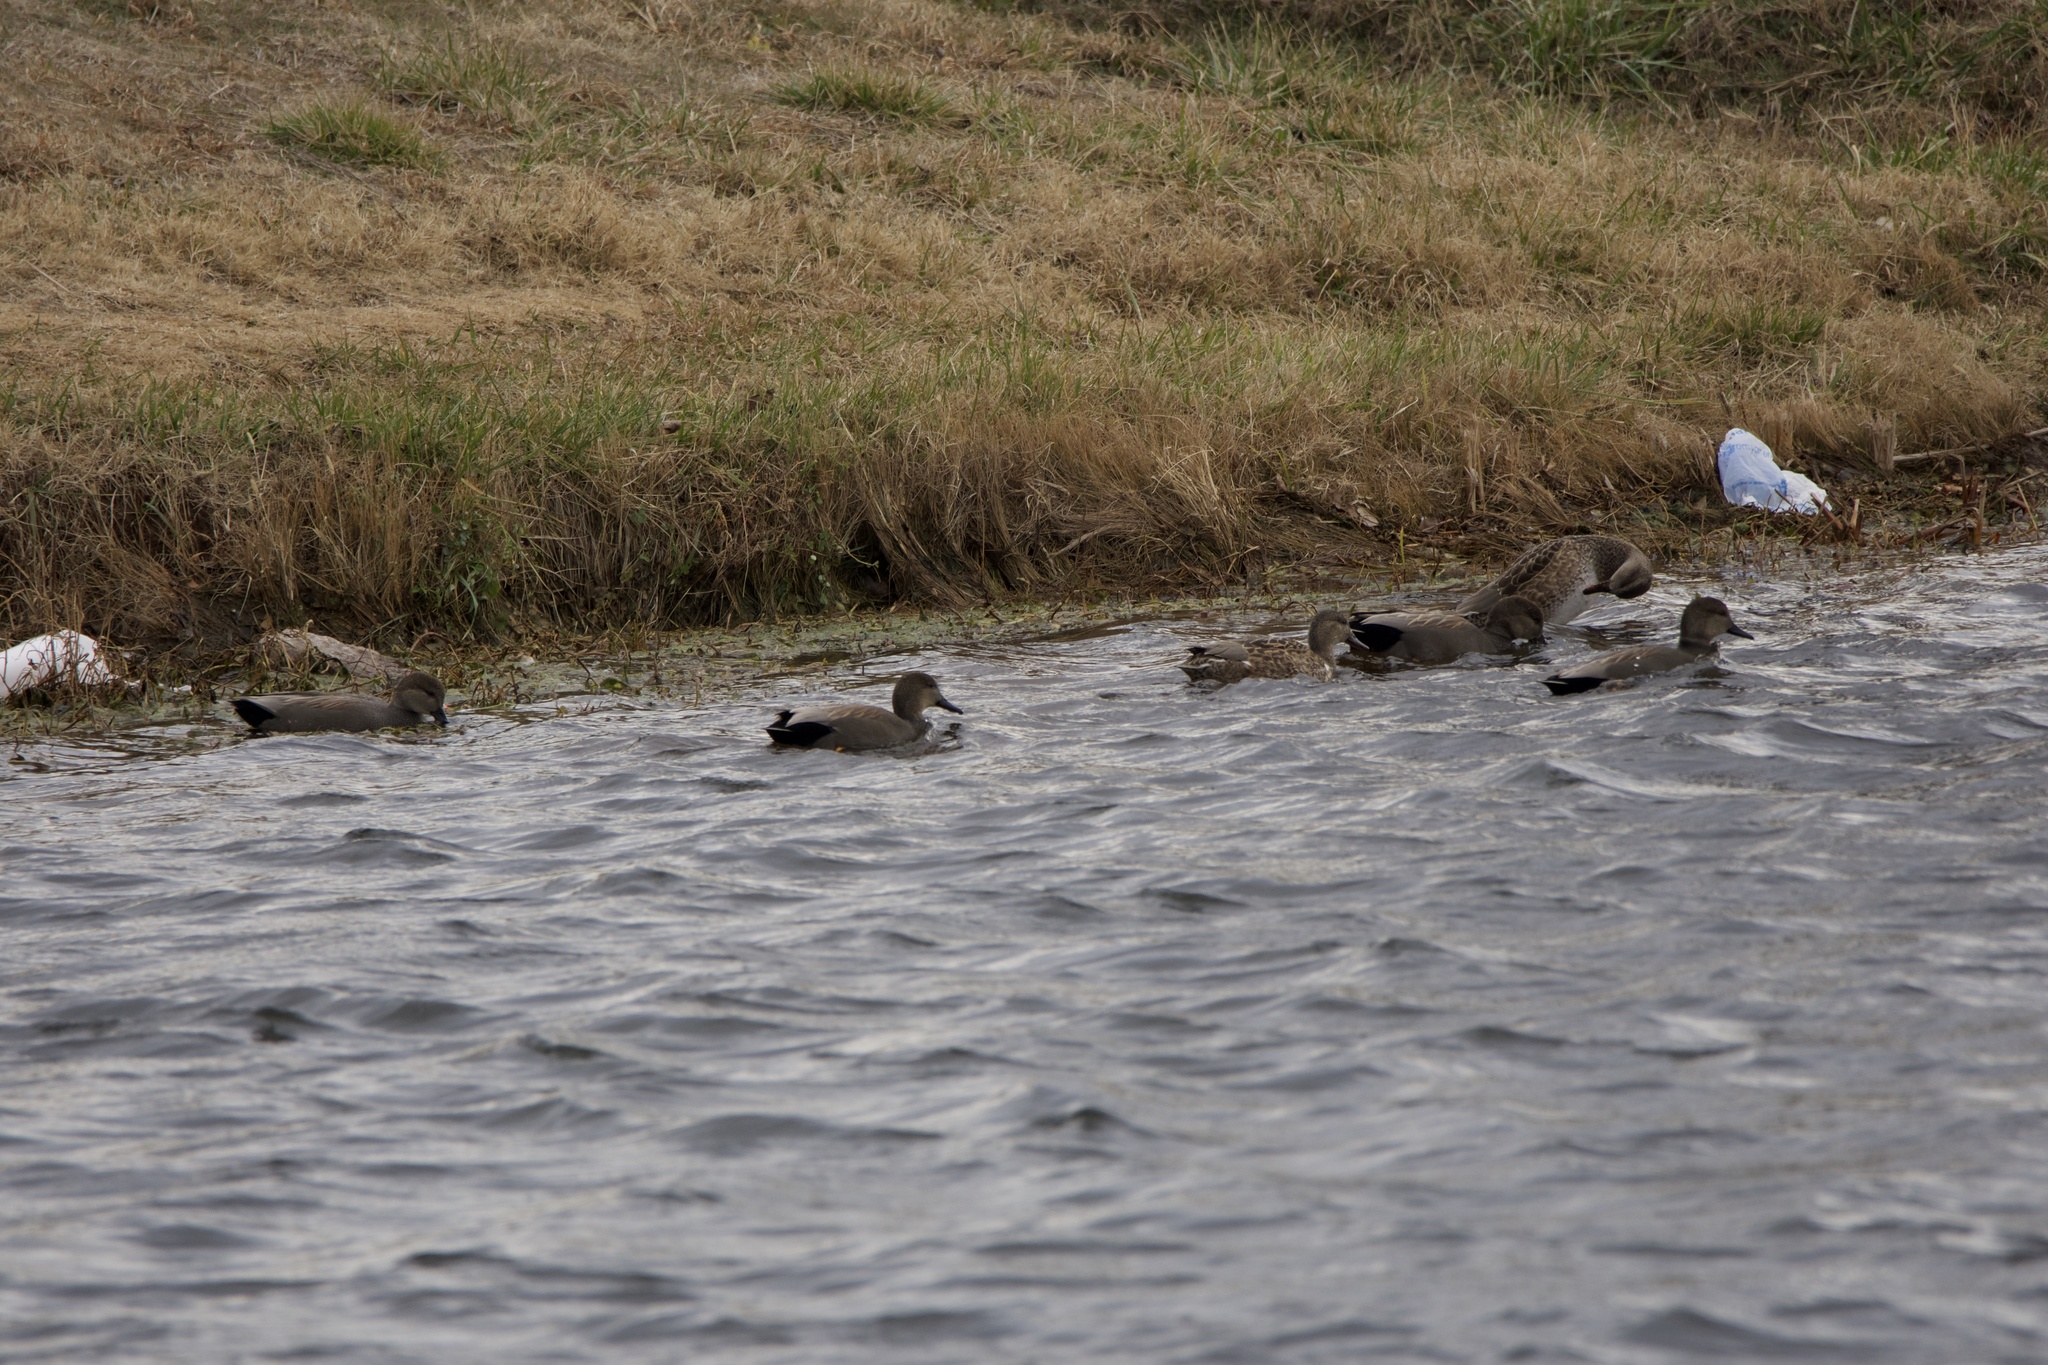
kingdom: Animalia
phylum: Chordata
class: Aves
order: Anseriformes
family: Anatidae
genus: Mareca
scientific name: Mareca strepera
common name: Gadwall
